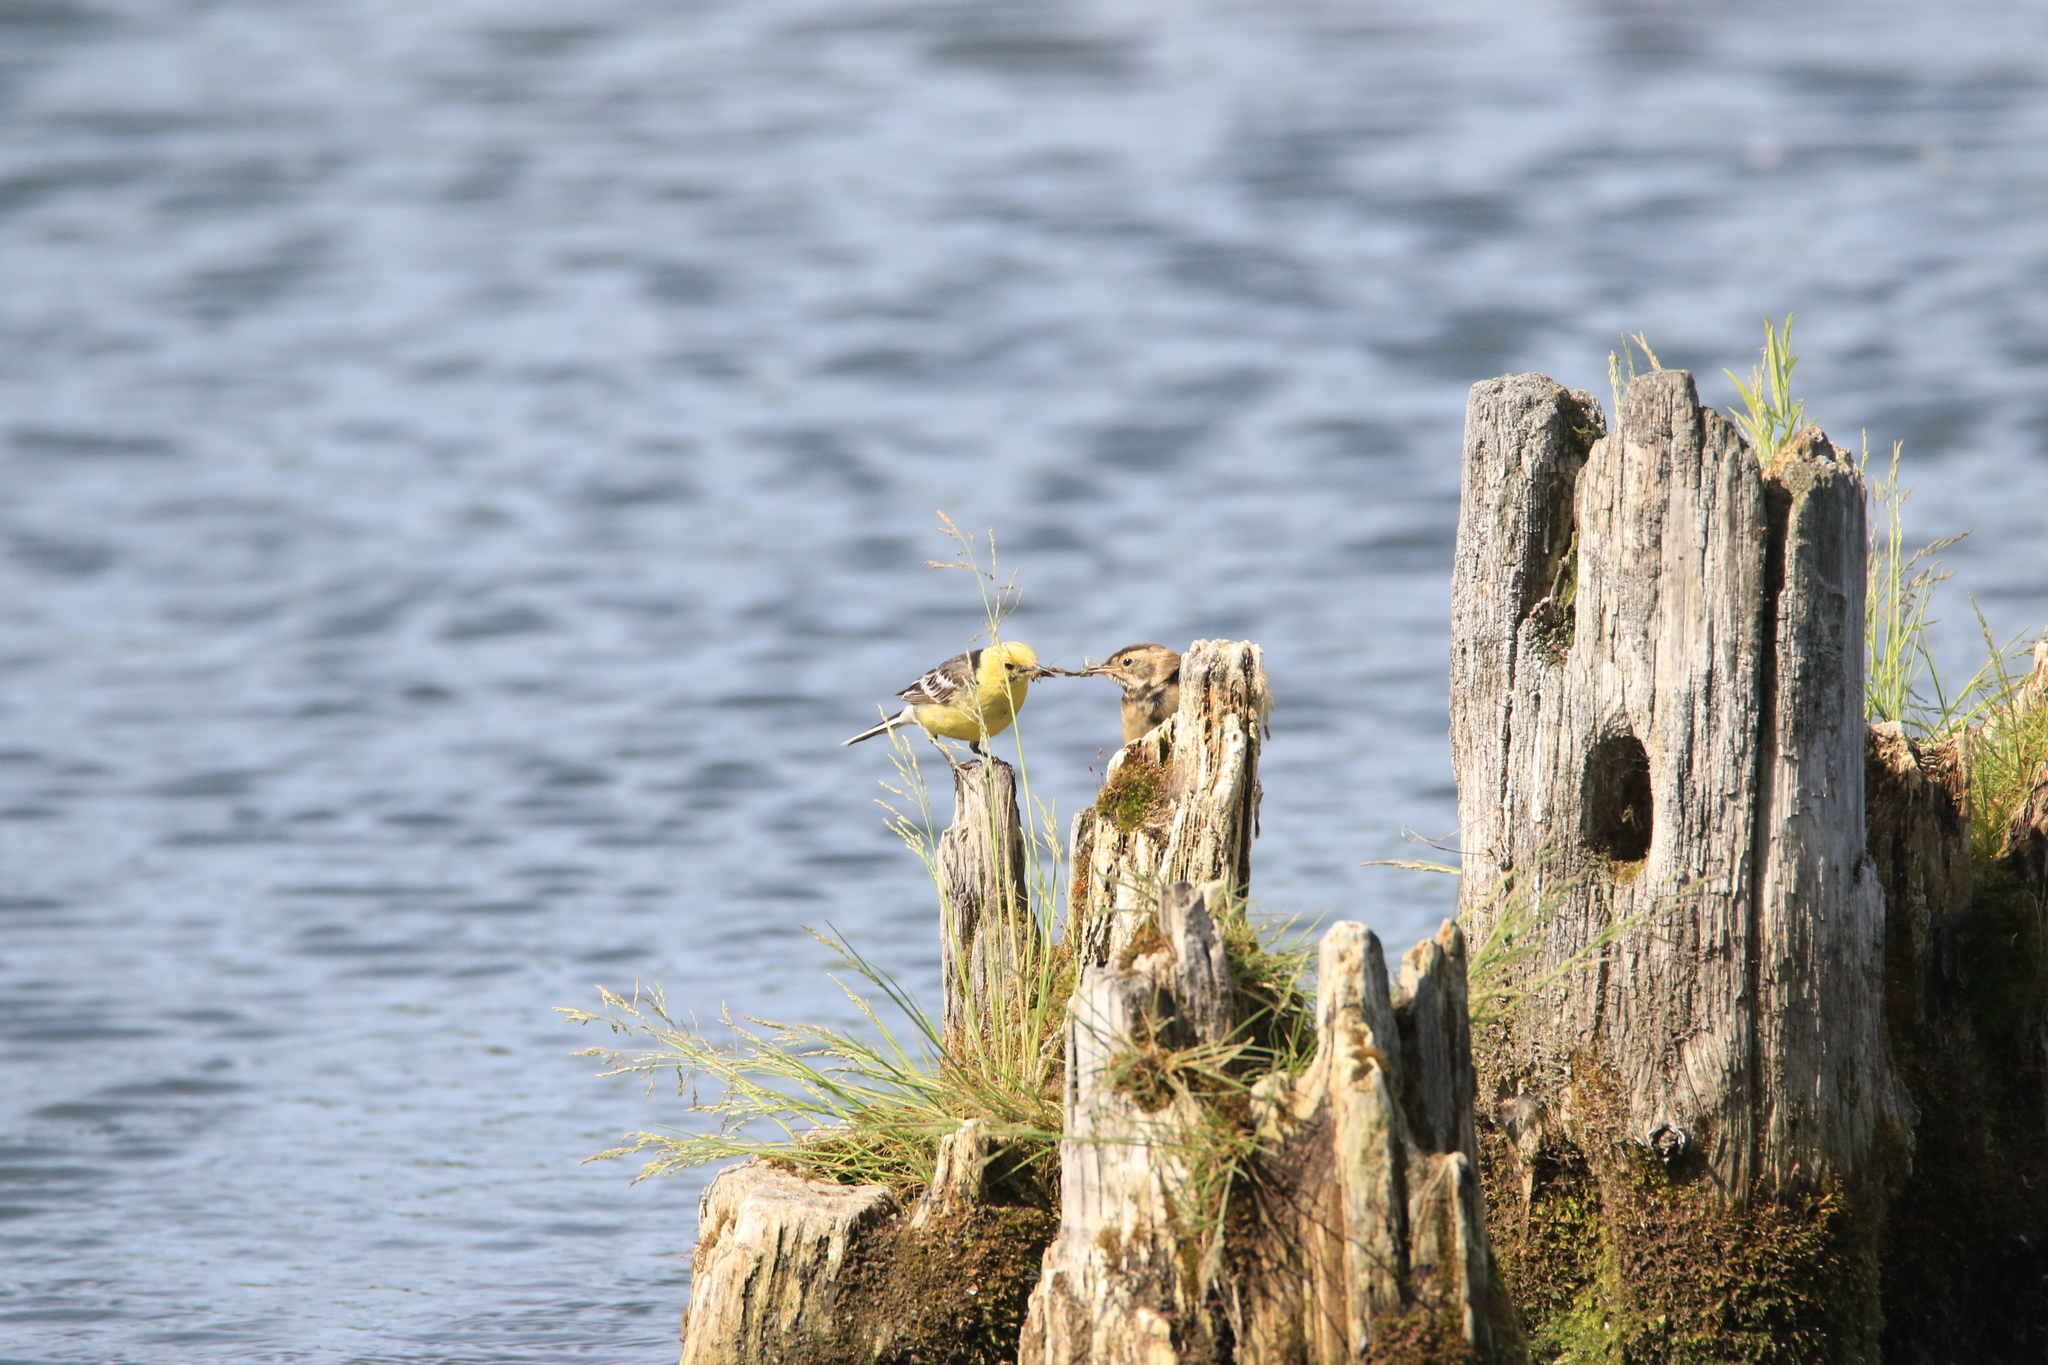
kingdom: Animalia
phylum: Chordata
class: Aves
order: Passeriformes
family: Motacillidae
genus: Motacilla
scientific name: Motacilla citreola
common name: Citrine wagtail
